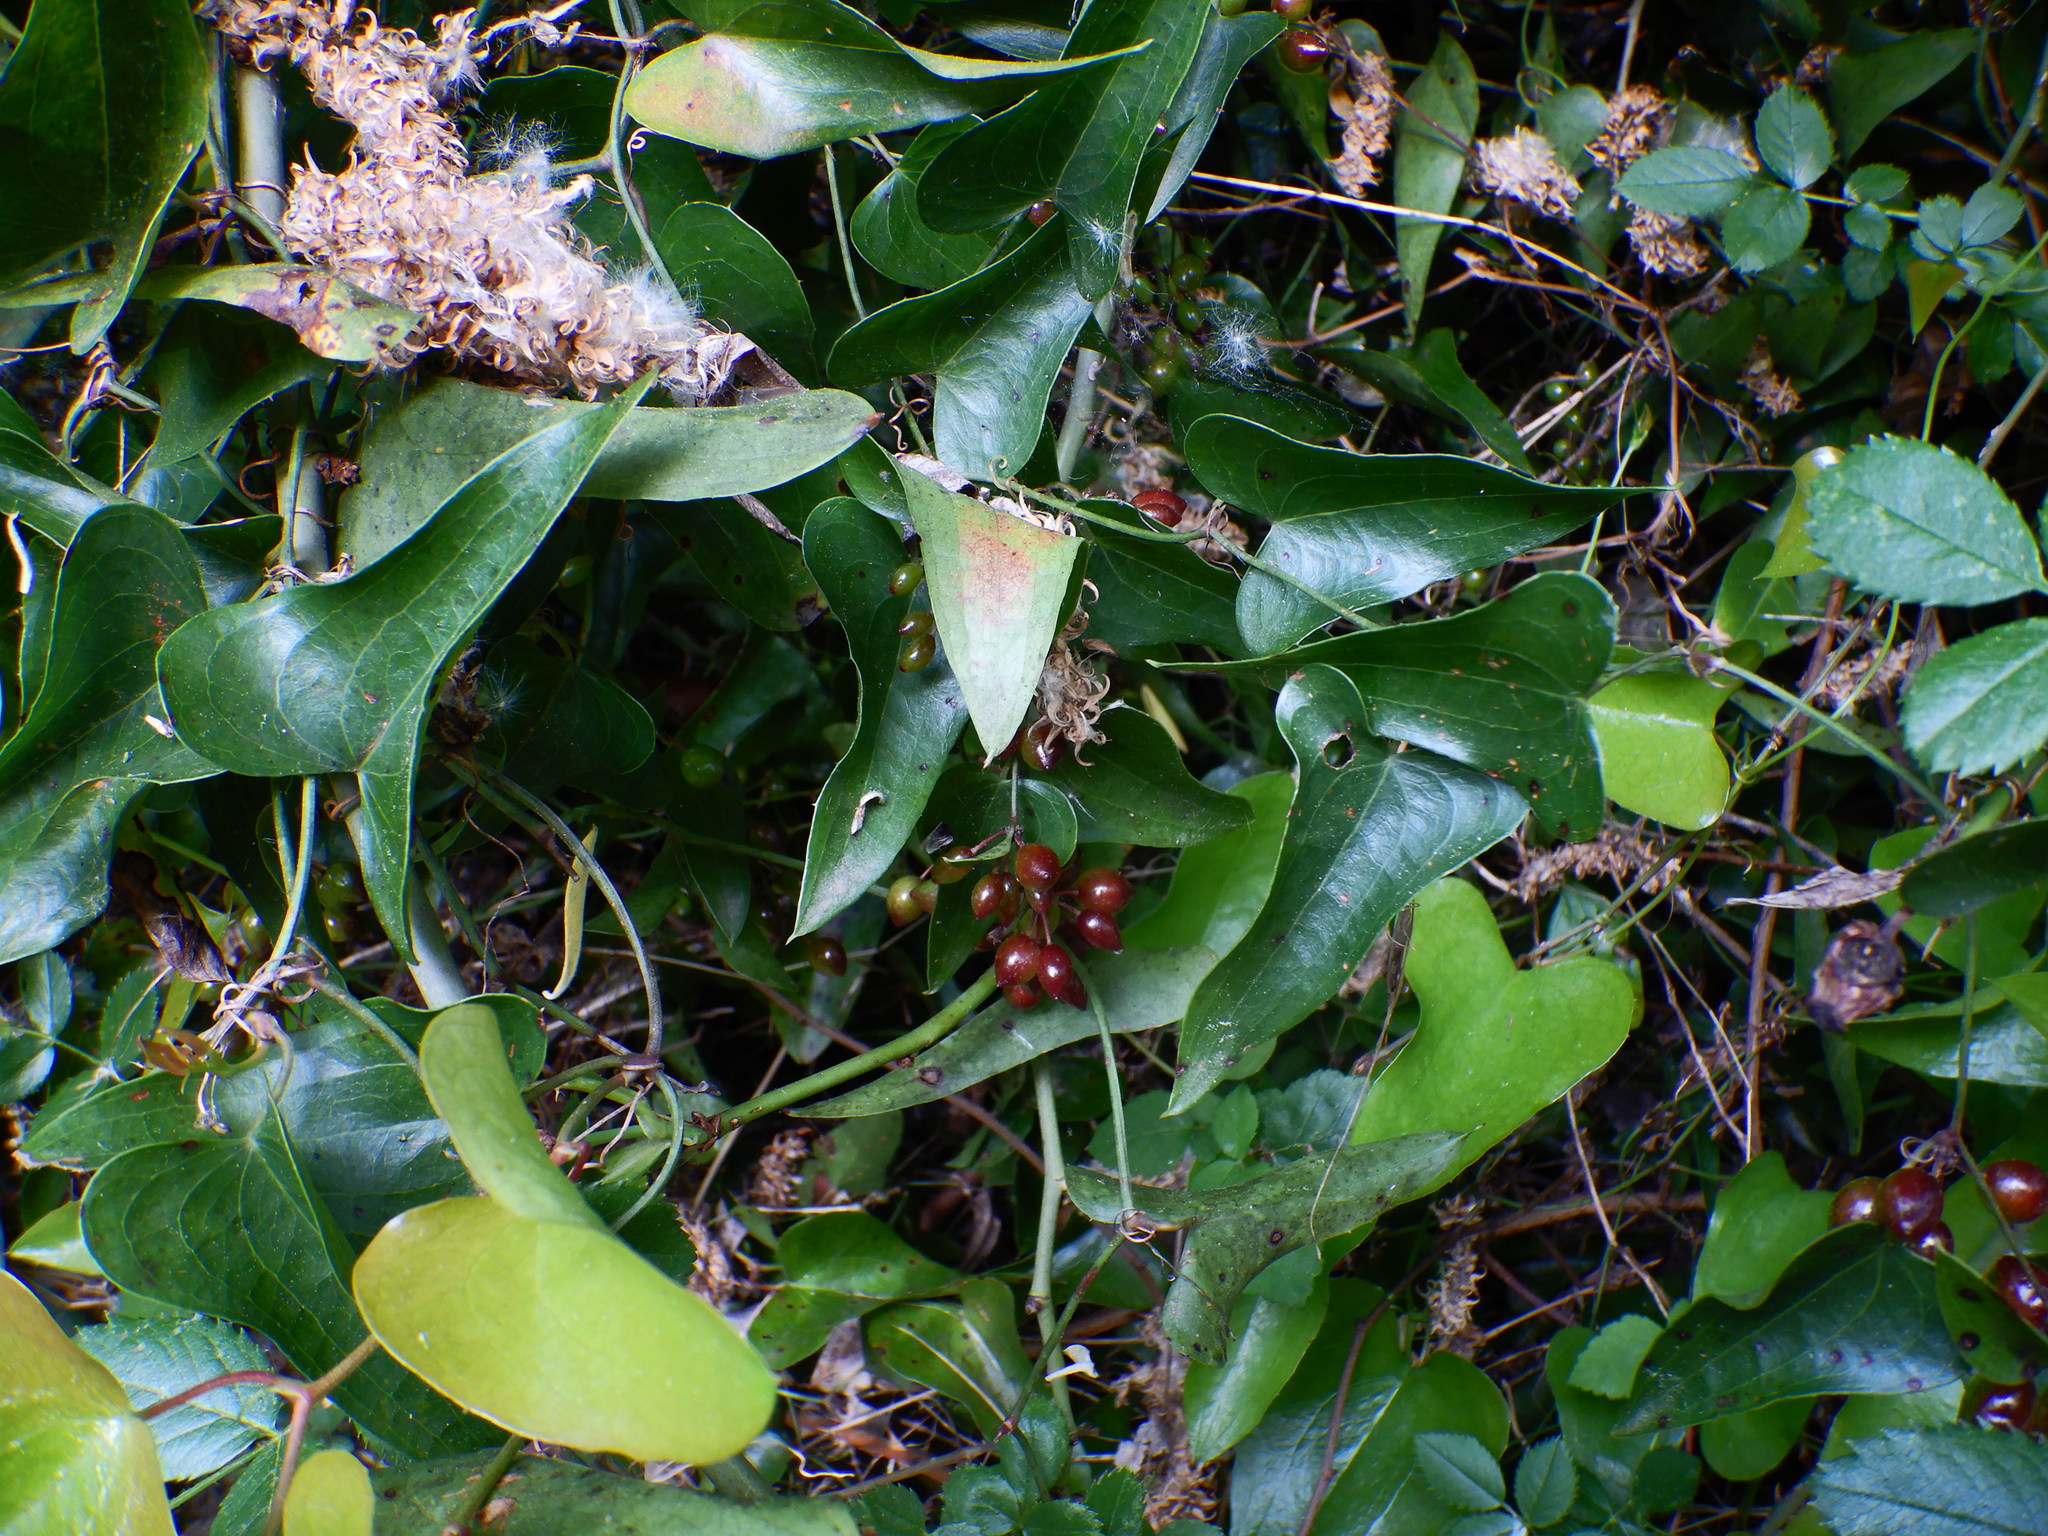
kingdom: Plantae
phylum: Tracheophyta
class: Liliopsida
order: Liliales
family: Smilacaceae
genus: Smilax
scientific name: Smilax aspera
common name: Common smilax
